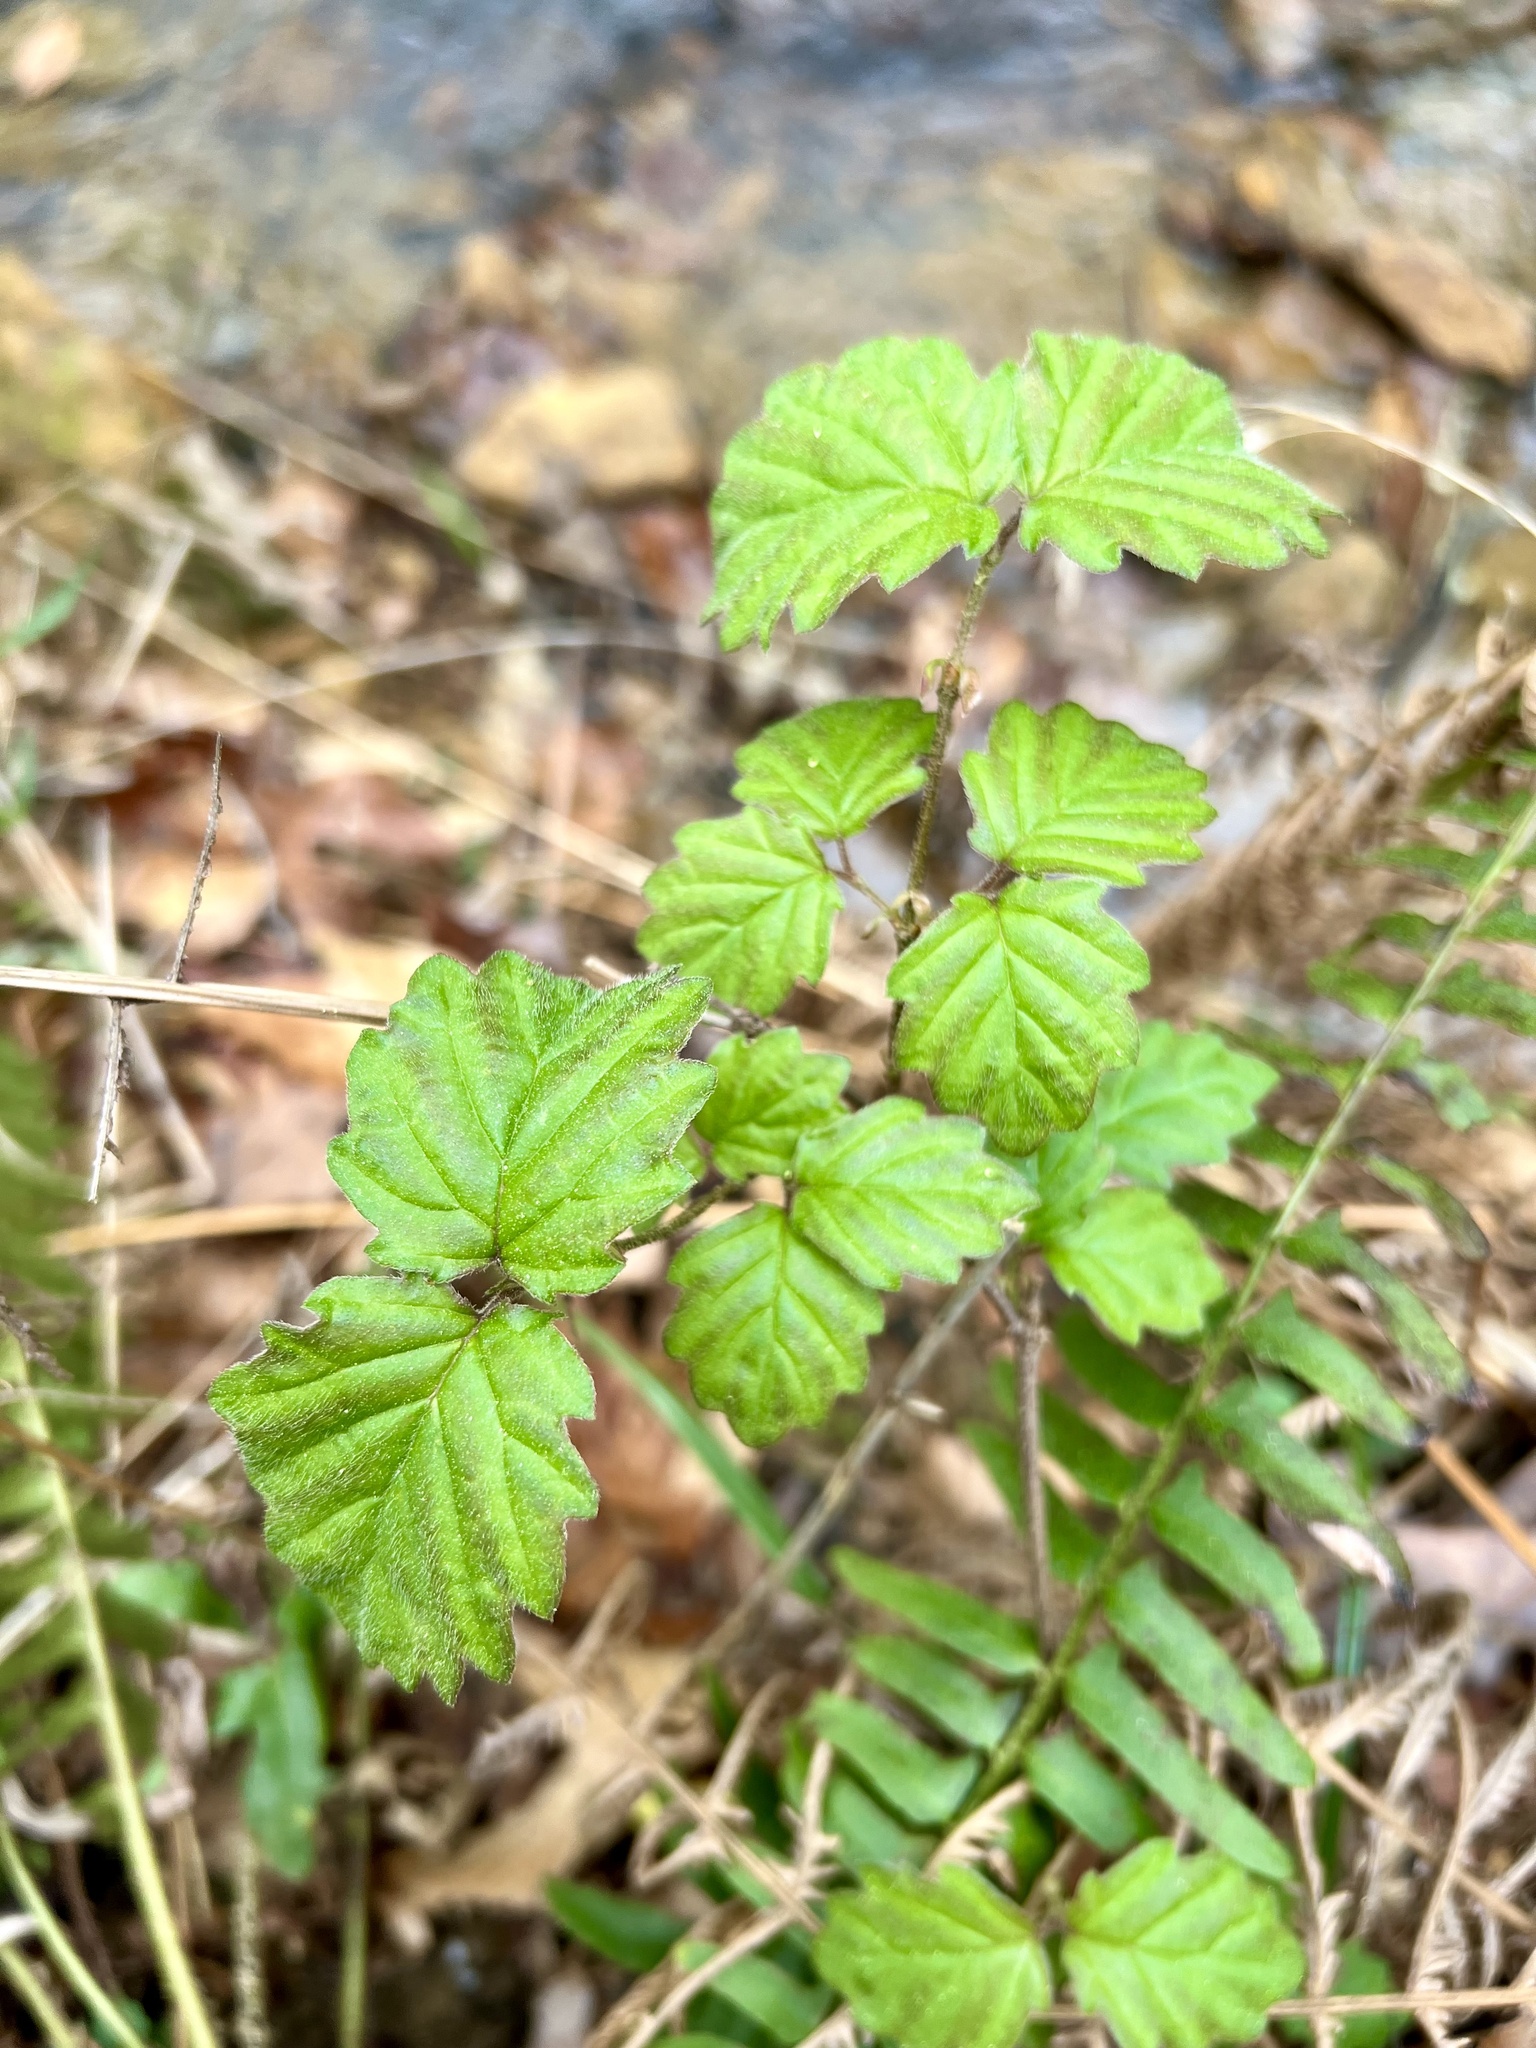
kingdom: Plantae
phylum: Tracheophyta
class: Magnoliopsida
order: Dipsacales
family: Viburnaceae
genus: Viburnum
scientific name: Viburnum scabrellum
